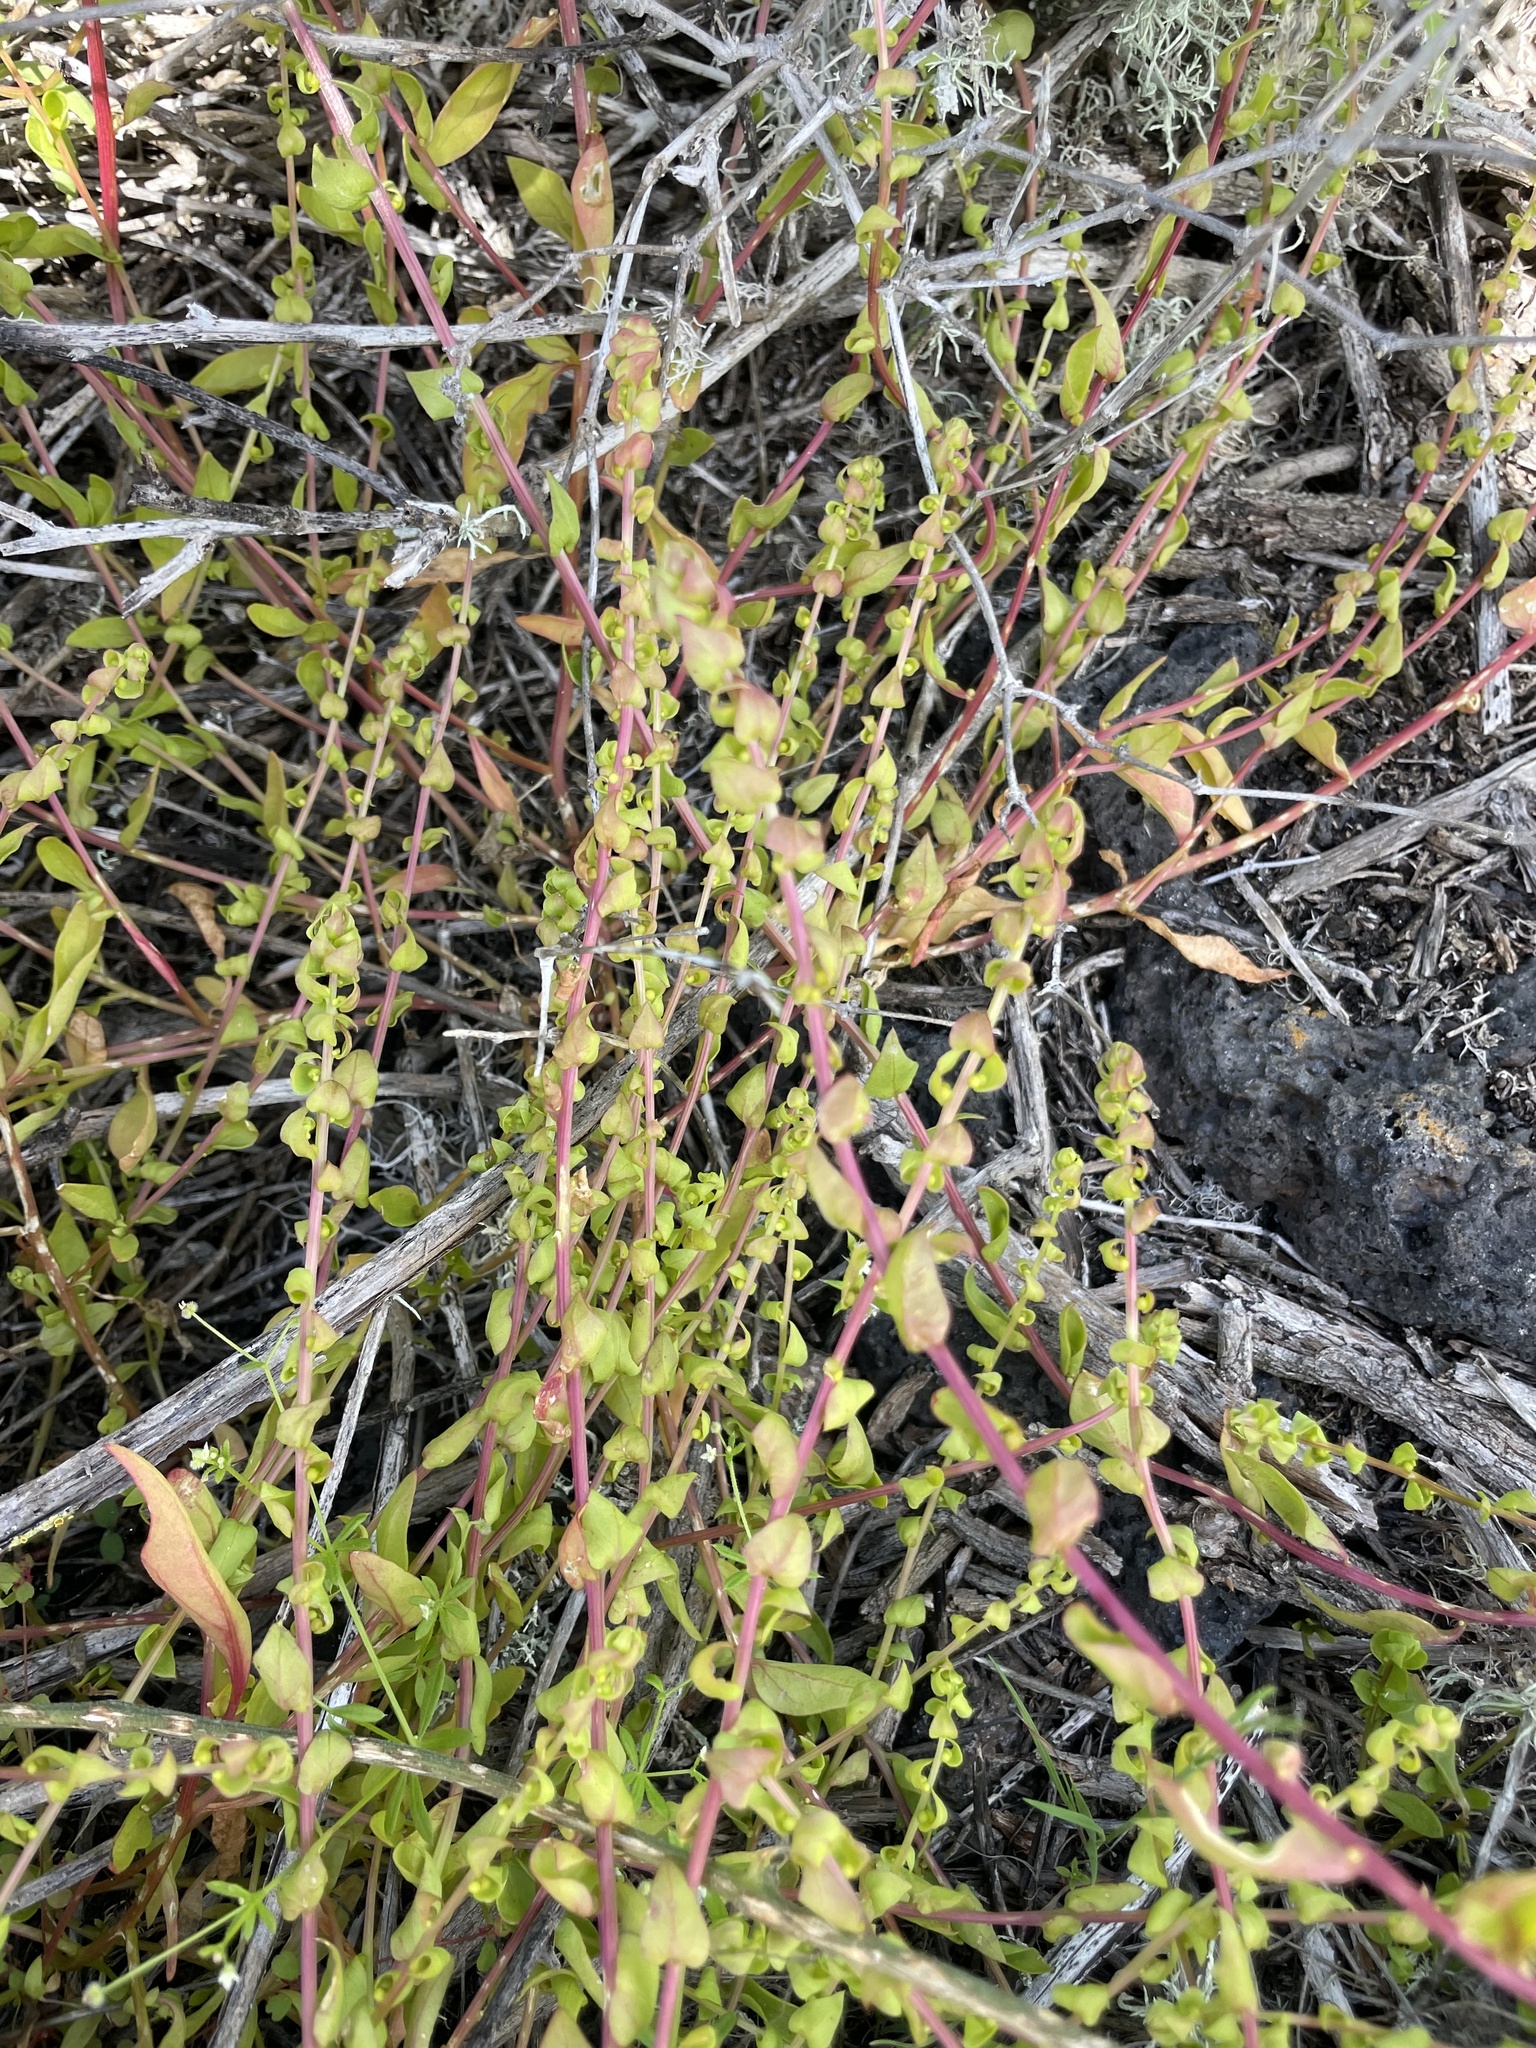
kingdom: Plantae
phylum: Tracheophyta
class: Magnoliopsida
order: Caryophyllales
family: Amaranthaceae
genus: Aphanisma
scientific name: Aphanisma blitoides
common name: Aphanisma
